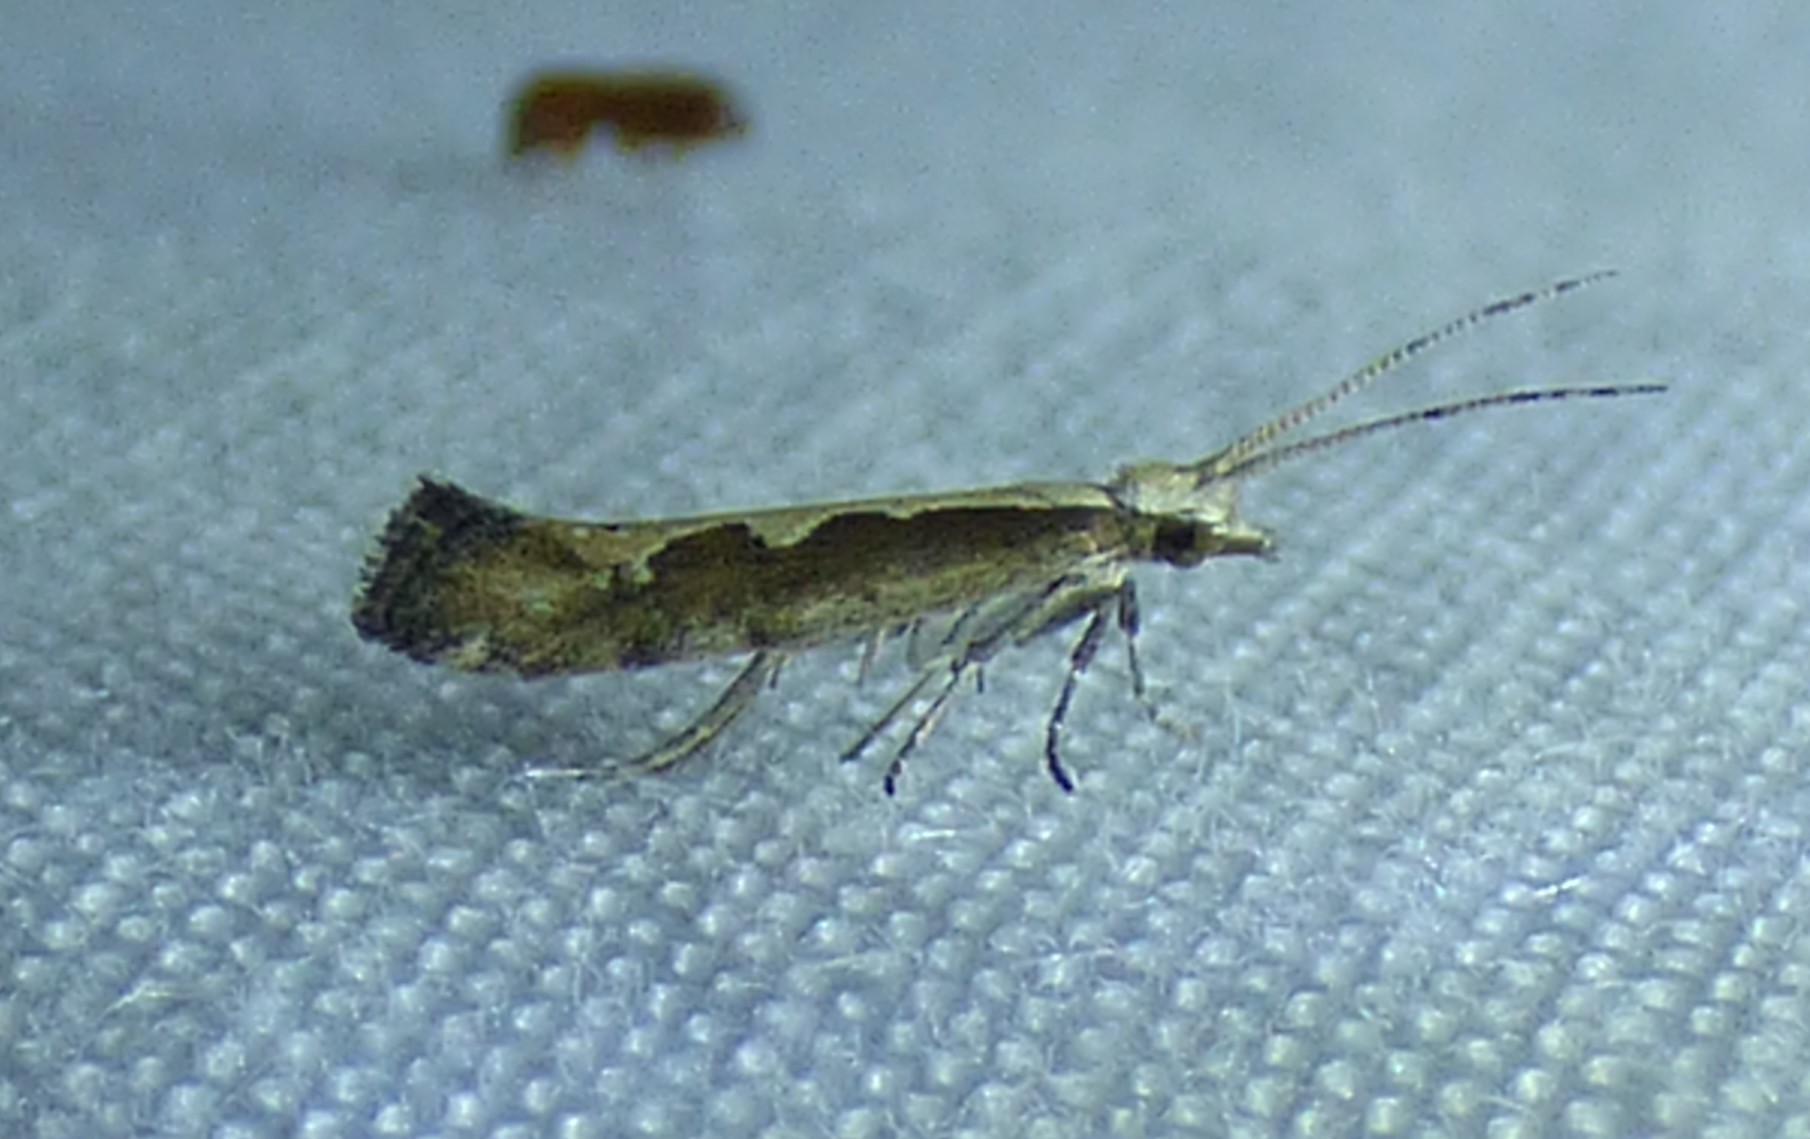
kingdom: Animalia
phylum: Arthropoda
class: Insecta
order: Lepidoptera
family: Plutellidae
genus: Plutella
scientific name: Plutella xylostella
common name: Diamond-back moth
